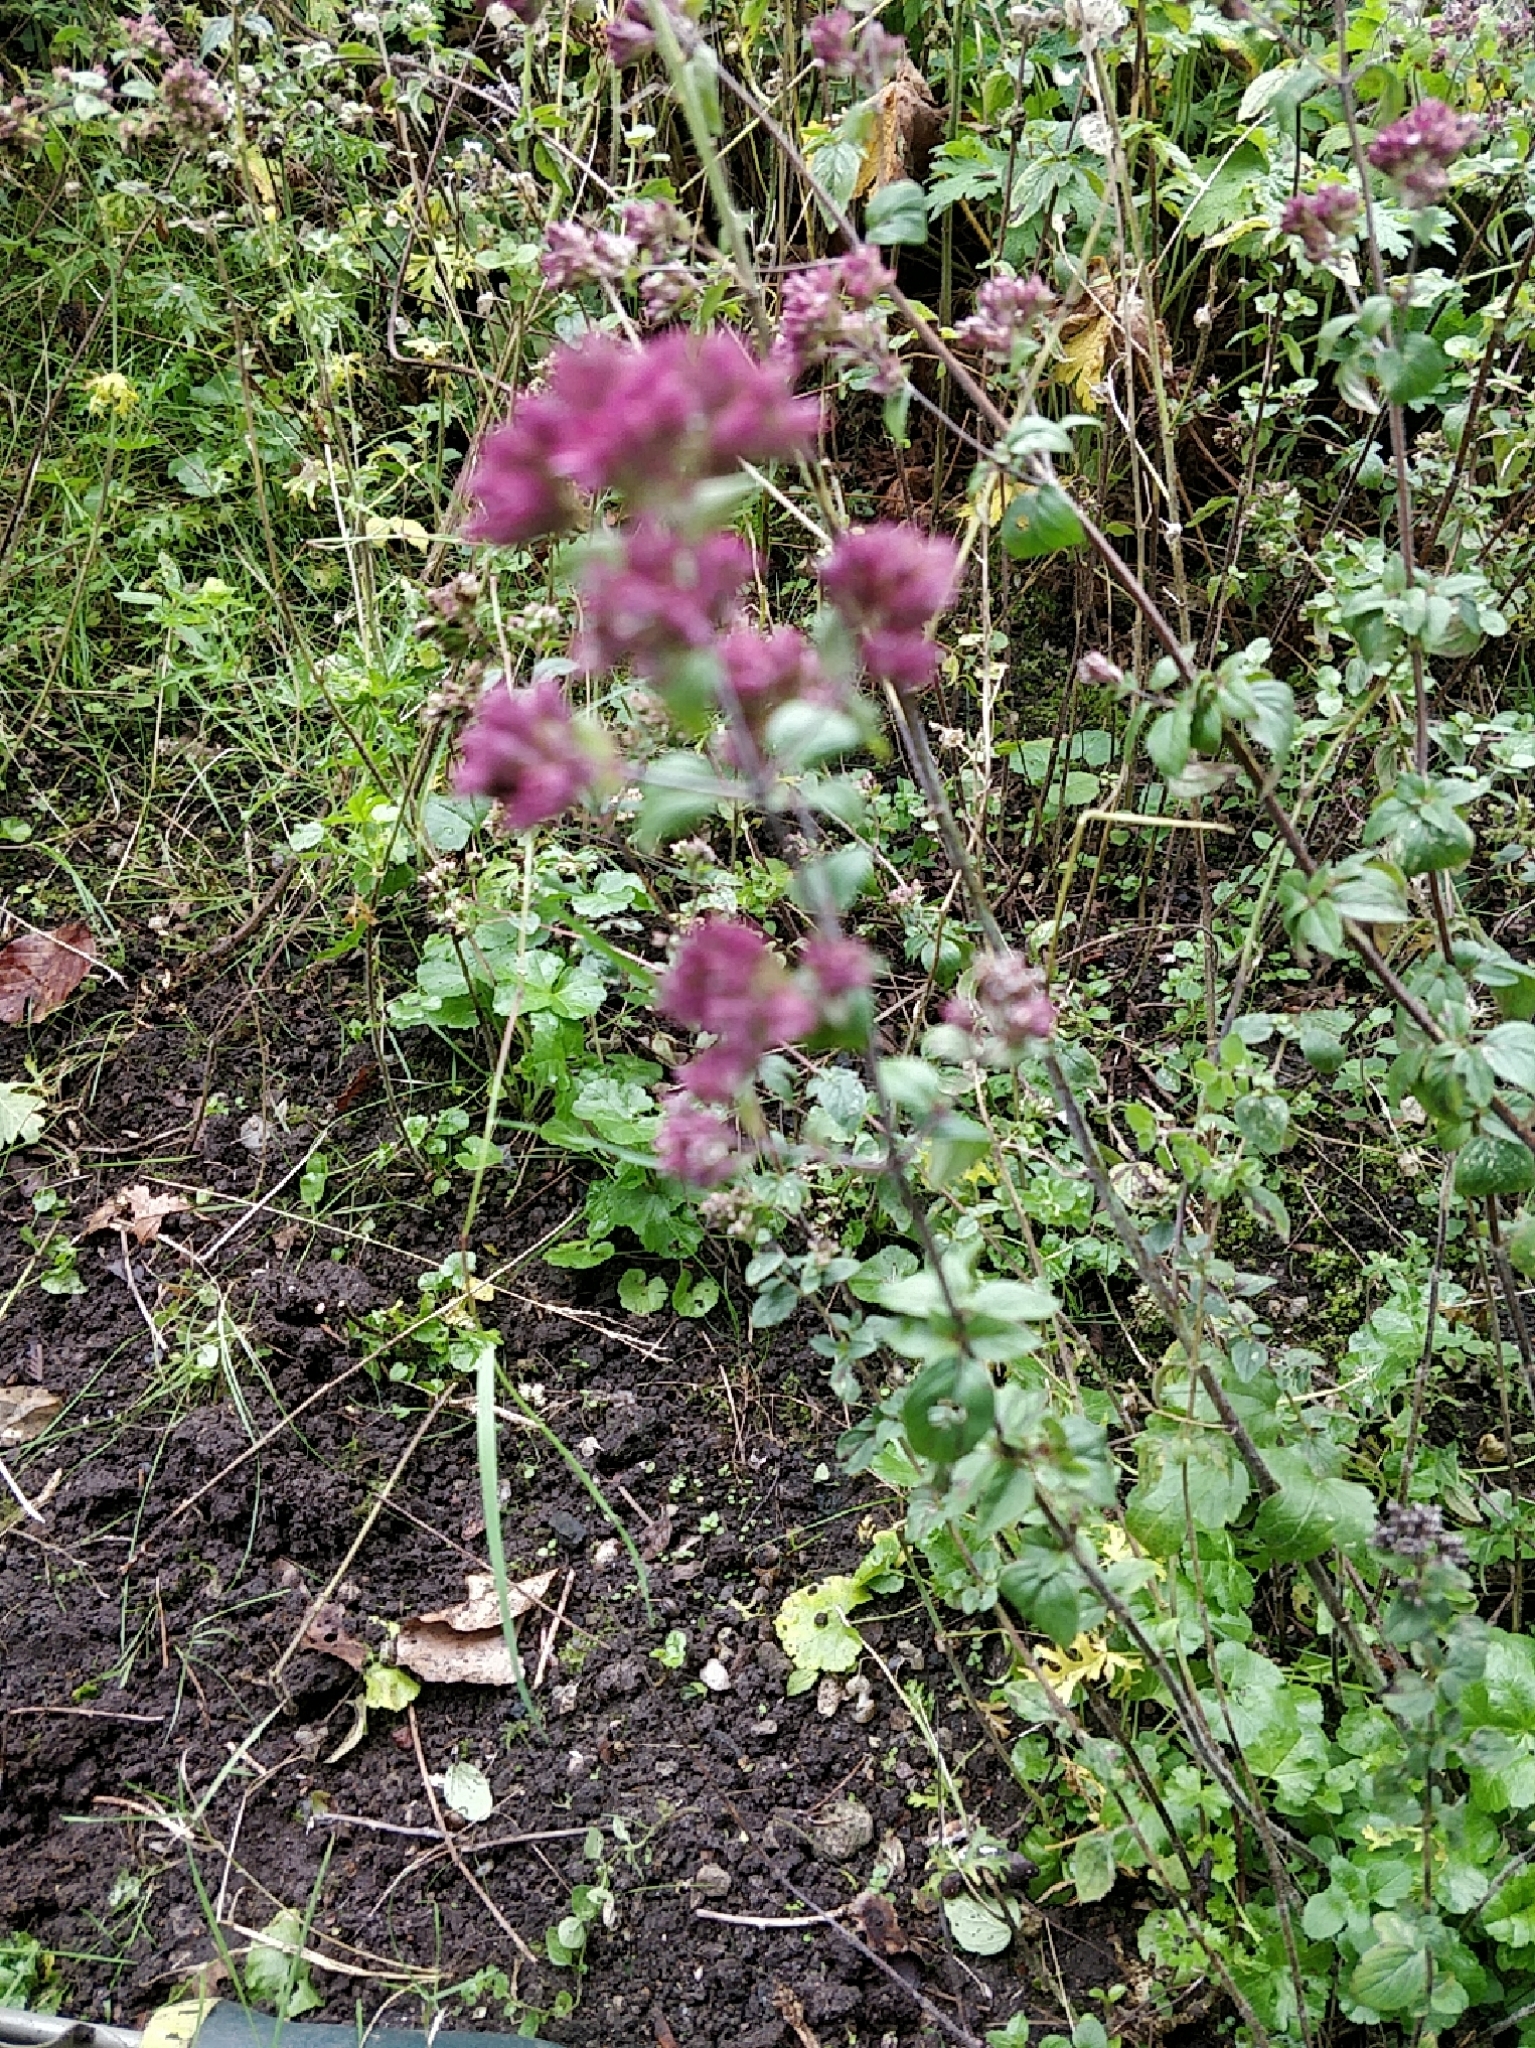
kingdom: Plantae
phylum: Tracheophyta
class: Magnoliopsida
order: Lamiales
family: Lamiaceae
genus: Origanum
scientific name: Origanum vulgare
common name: Wild marjoram
